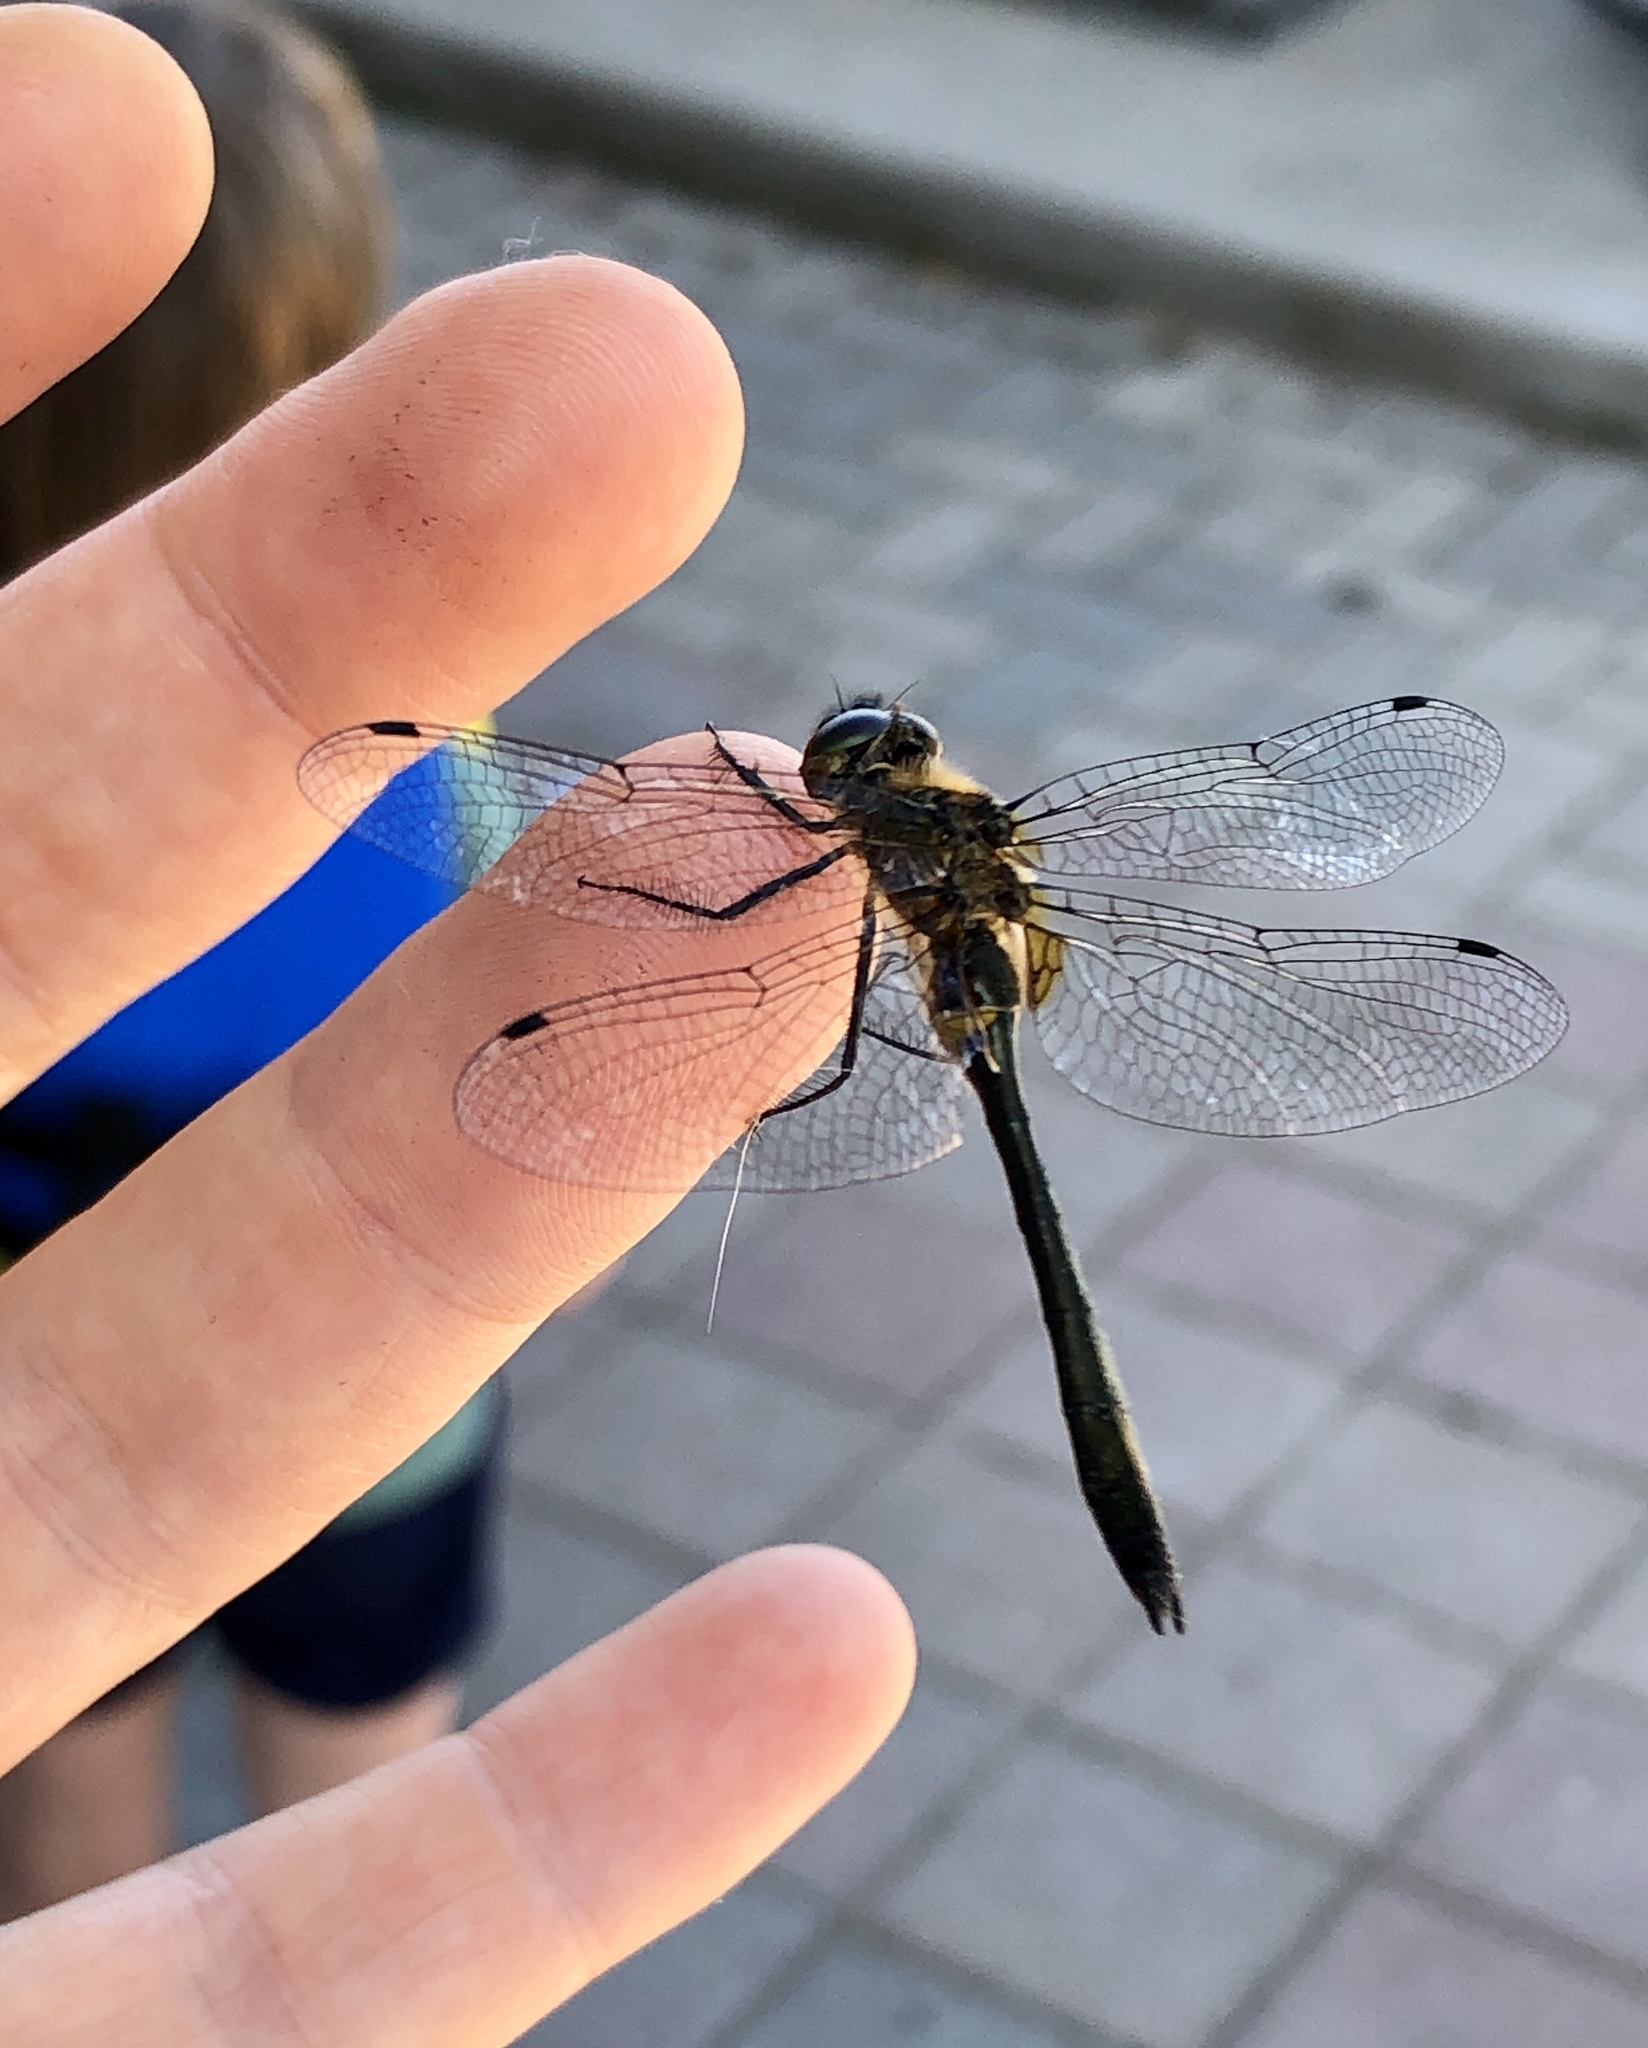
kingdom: Animalia
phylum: Arthropoda
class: Insecta
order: Odonata
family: Corduliidae
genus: Dorocordulia
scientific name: Dorocordulia libera
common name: Racket-tailed emerald
